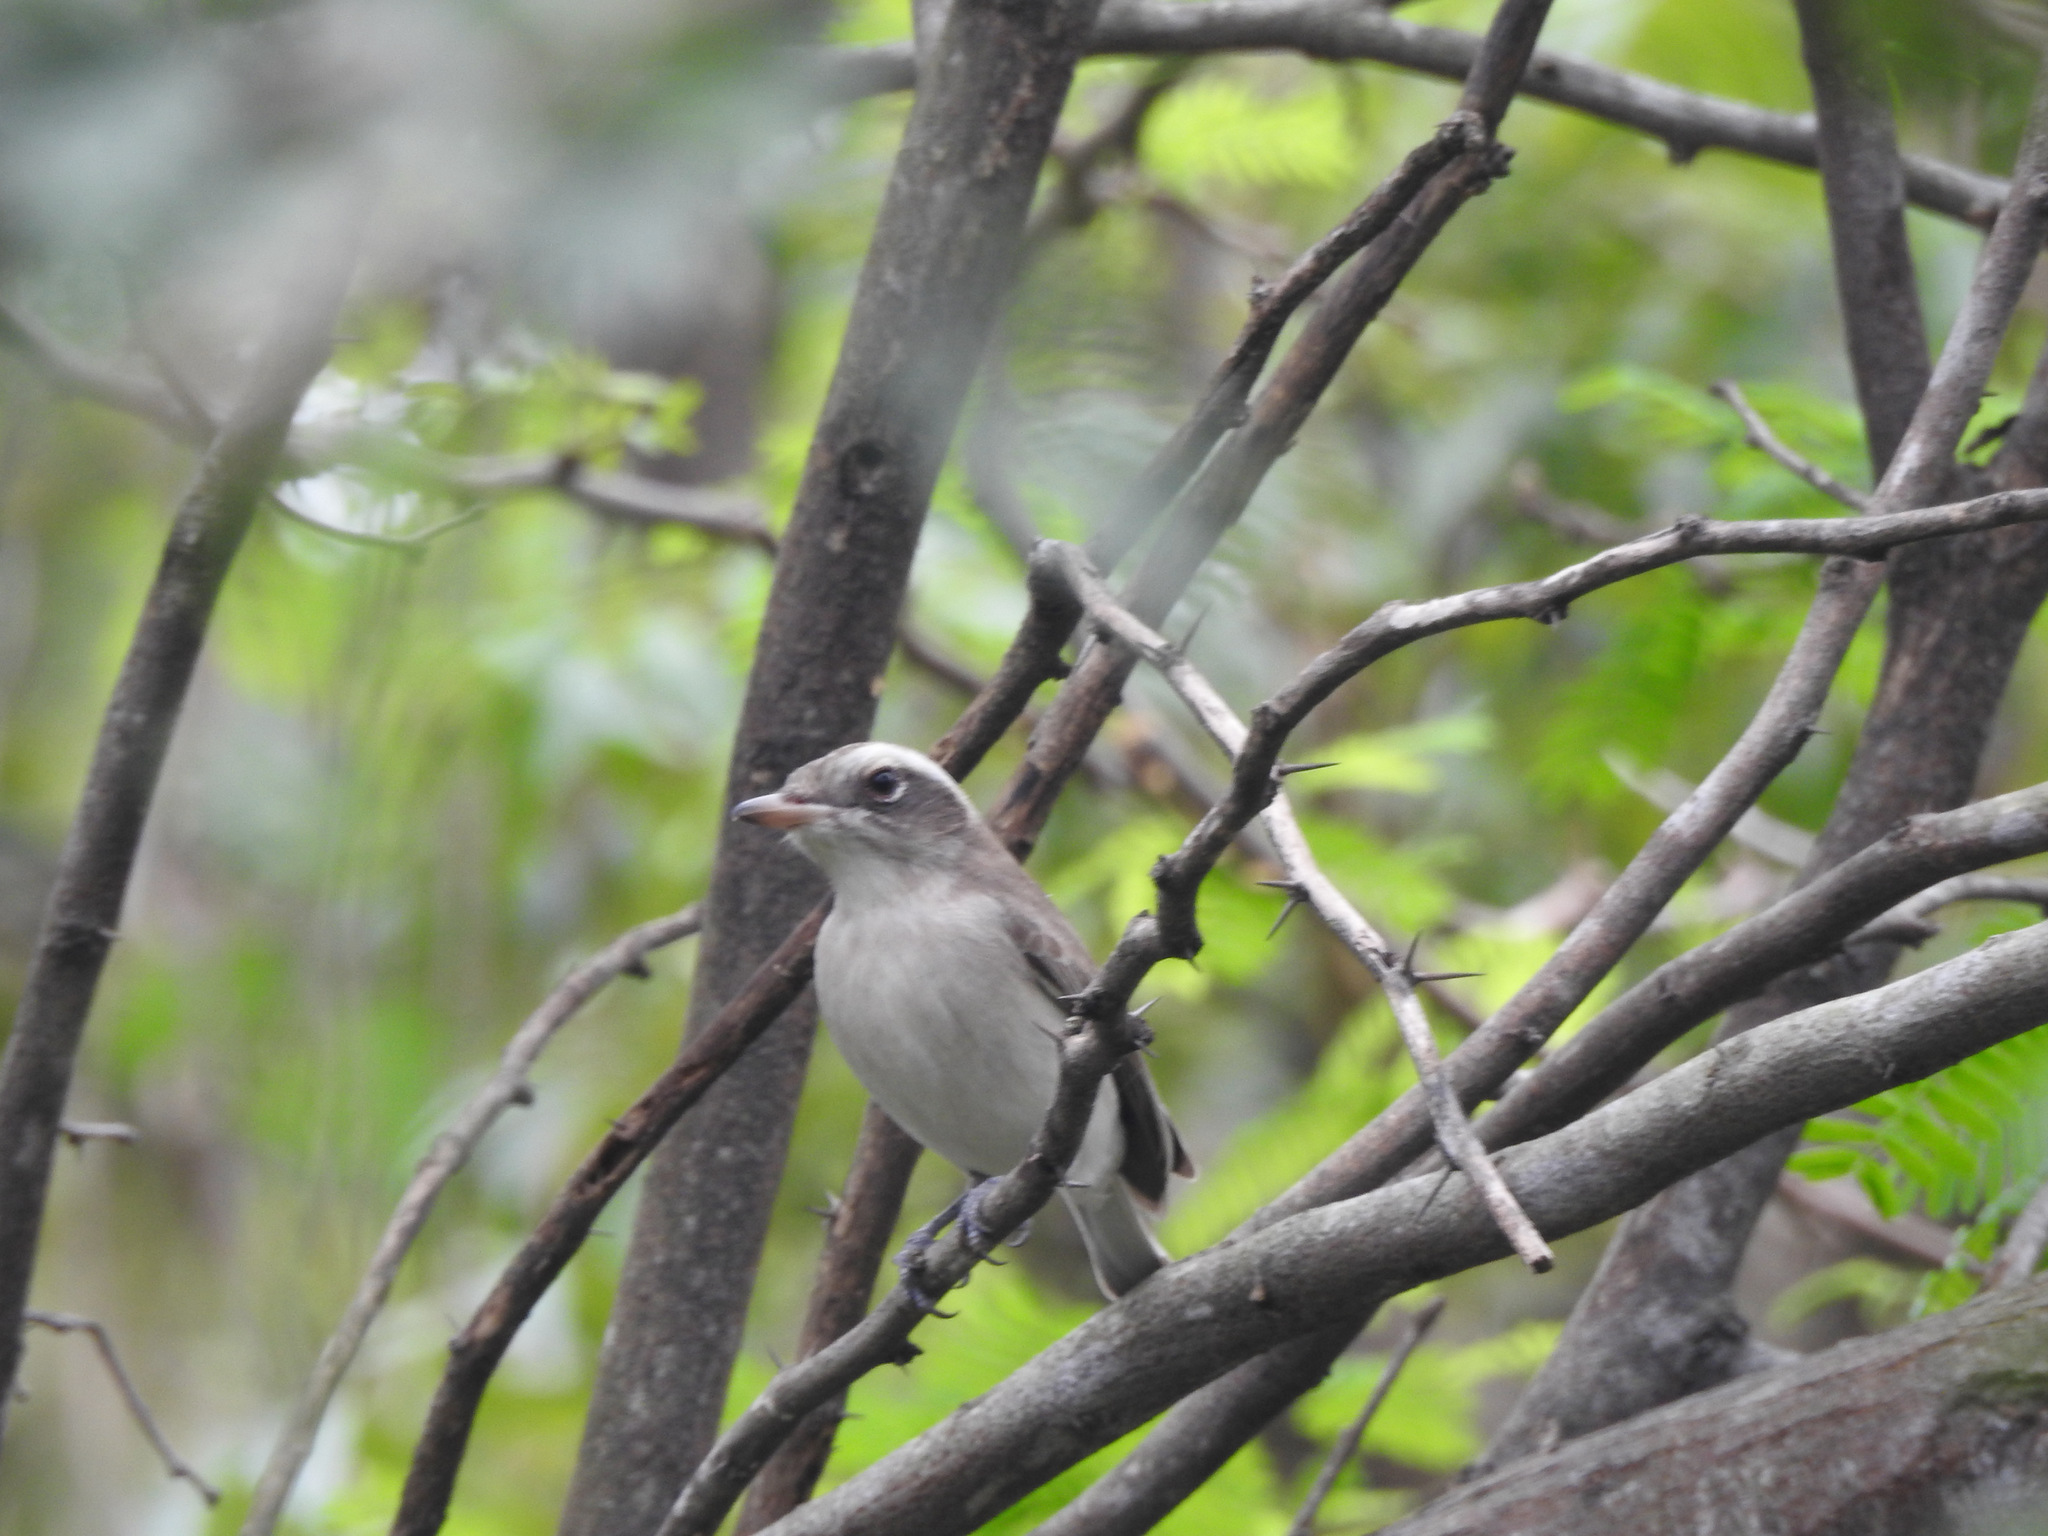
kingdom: Animalia
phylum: Chordata
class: Aves
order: Passeriformes
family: Tephrodornithidae
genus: Tephrodornis
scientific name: Tephrodornis pondicerianus
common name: Common woodshrike
